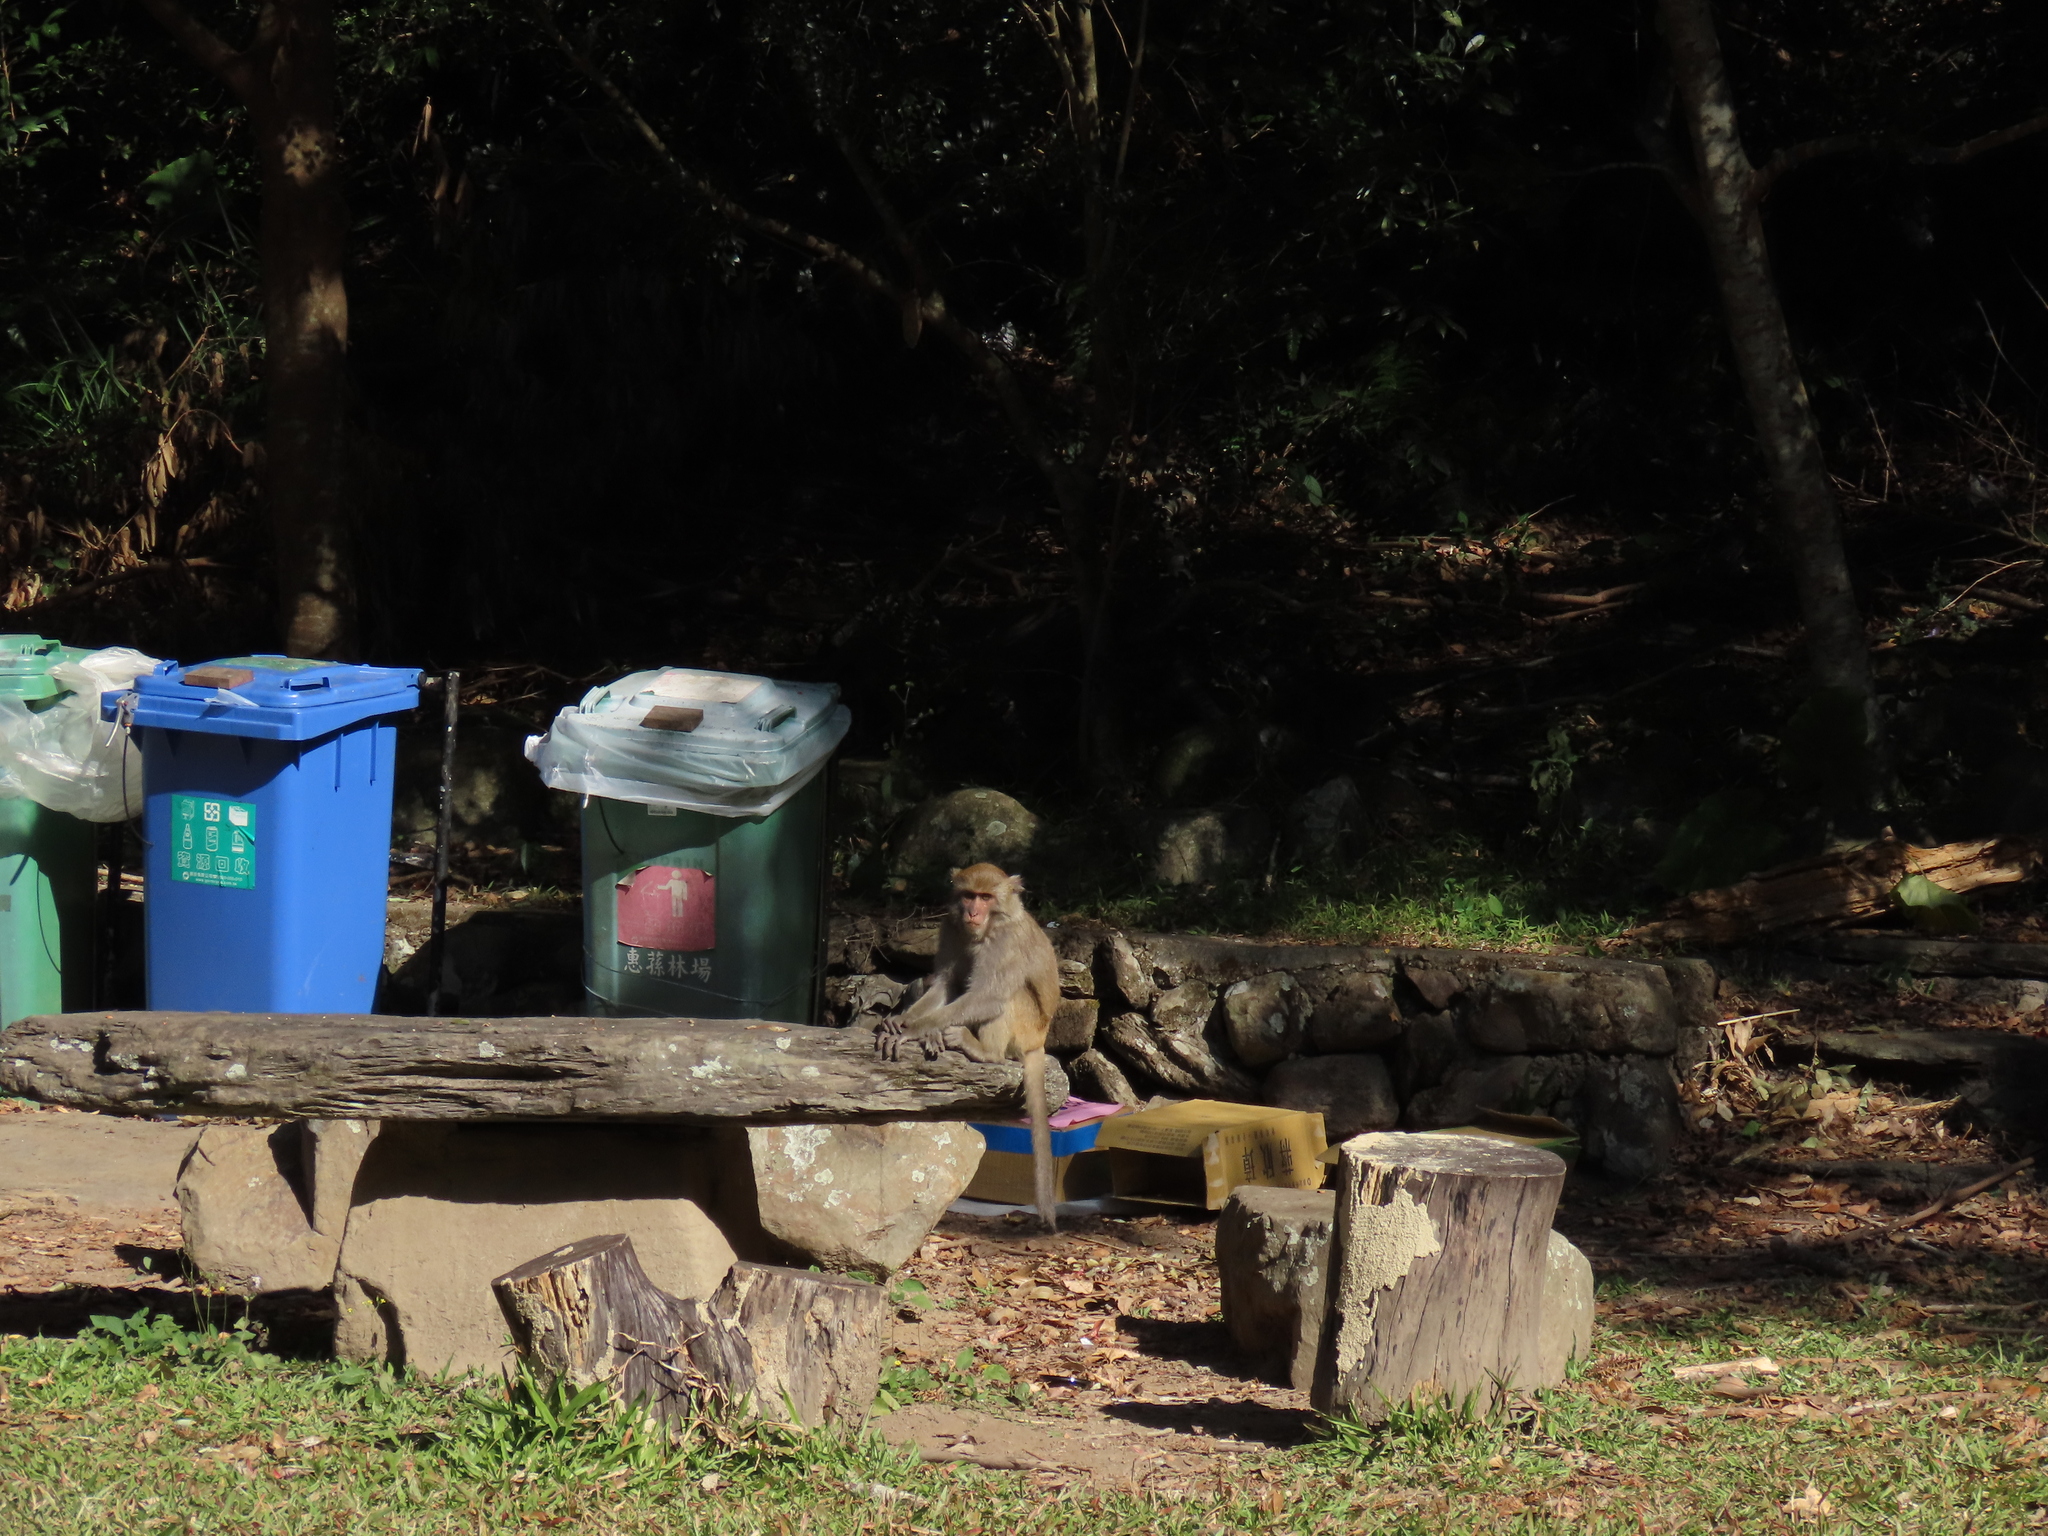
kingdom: Animalia
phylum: Chordata
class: Mammalia
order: Primates
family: Cercopithecidae
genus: Macaca
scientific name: Macaca cyclopis
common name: Formosan rock macaque
